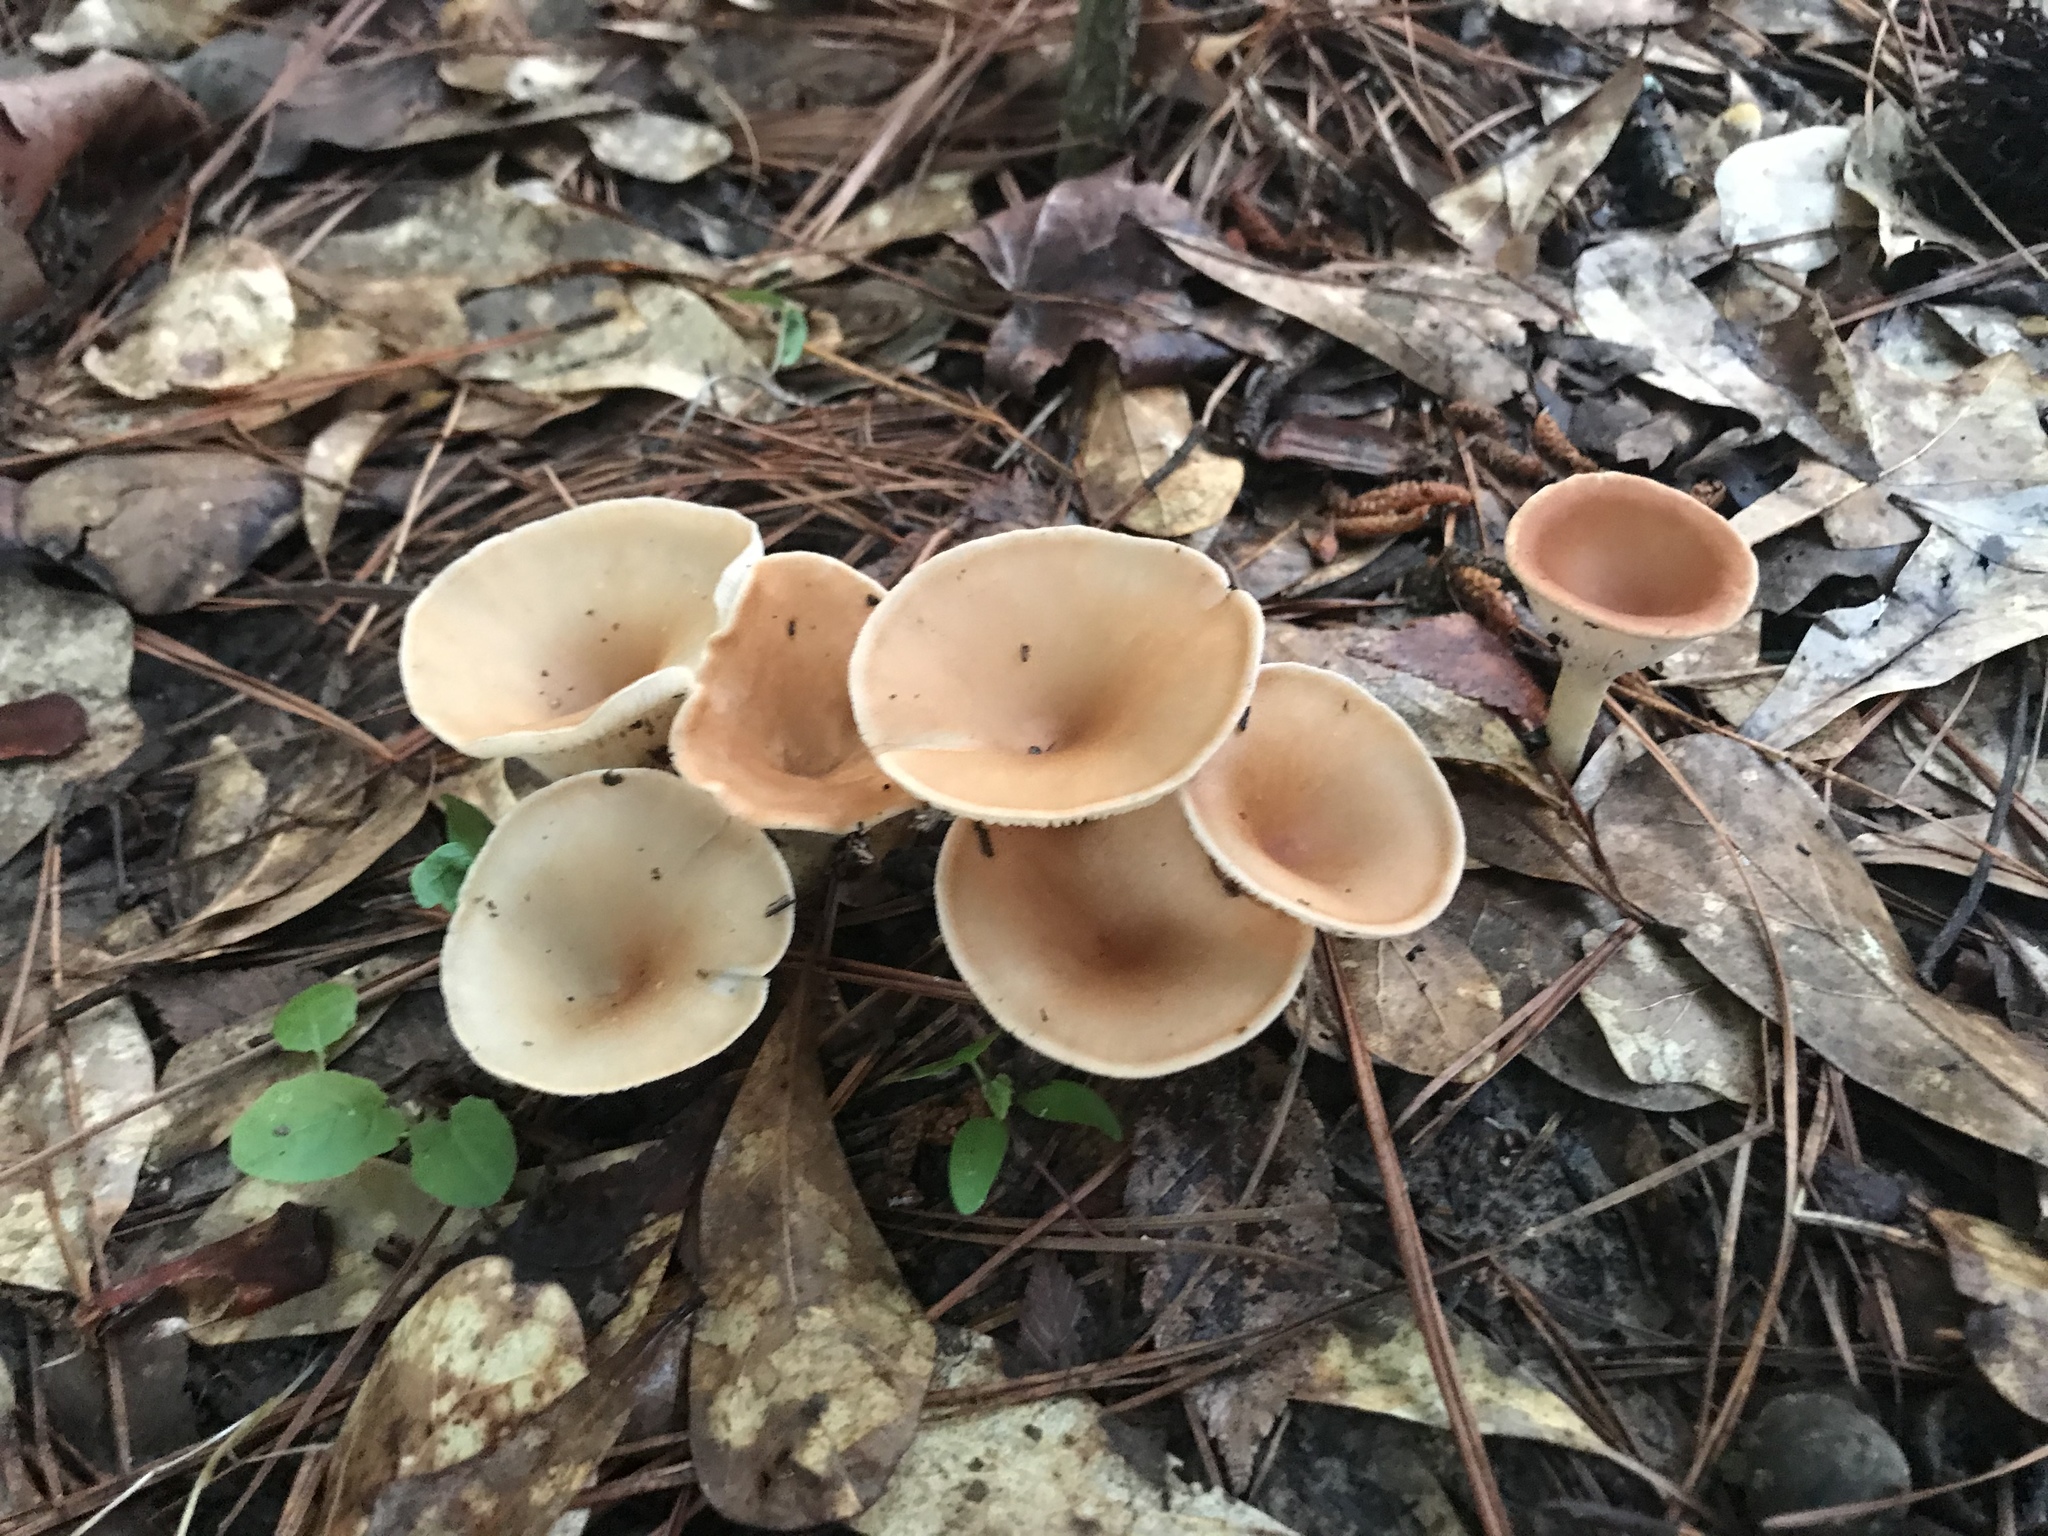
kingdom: Fungi
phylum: Basidiomycota
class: Agaricomycetes
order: Agaricales
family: Tricholomataceae
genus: Infundibulicybe
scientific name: Infundibulicybe gibba
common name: Common funnel
